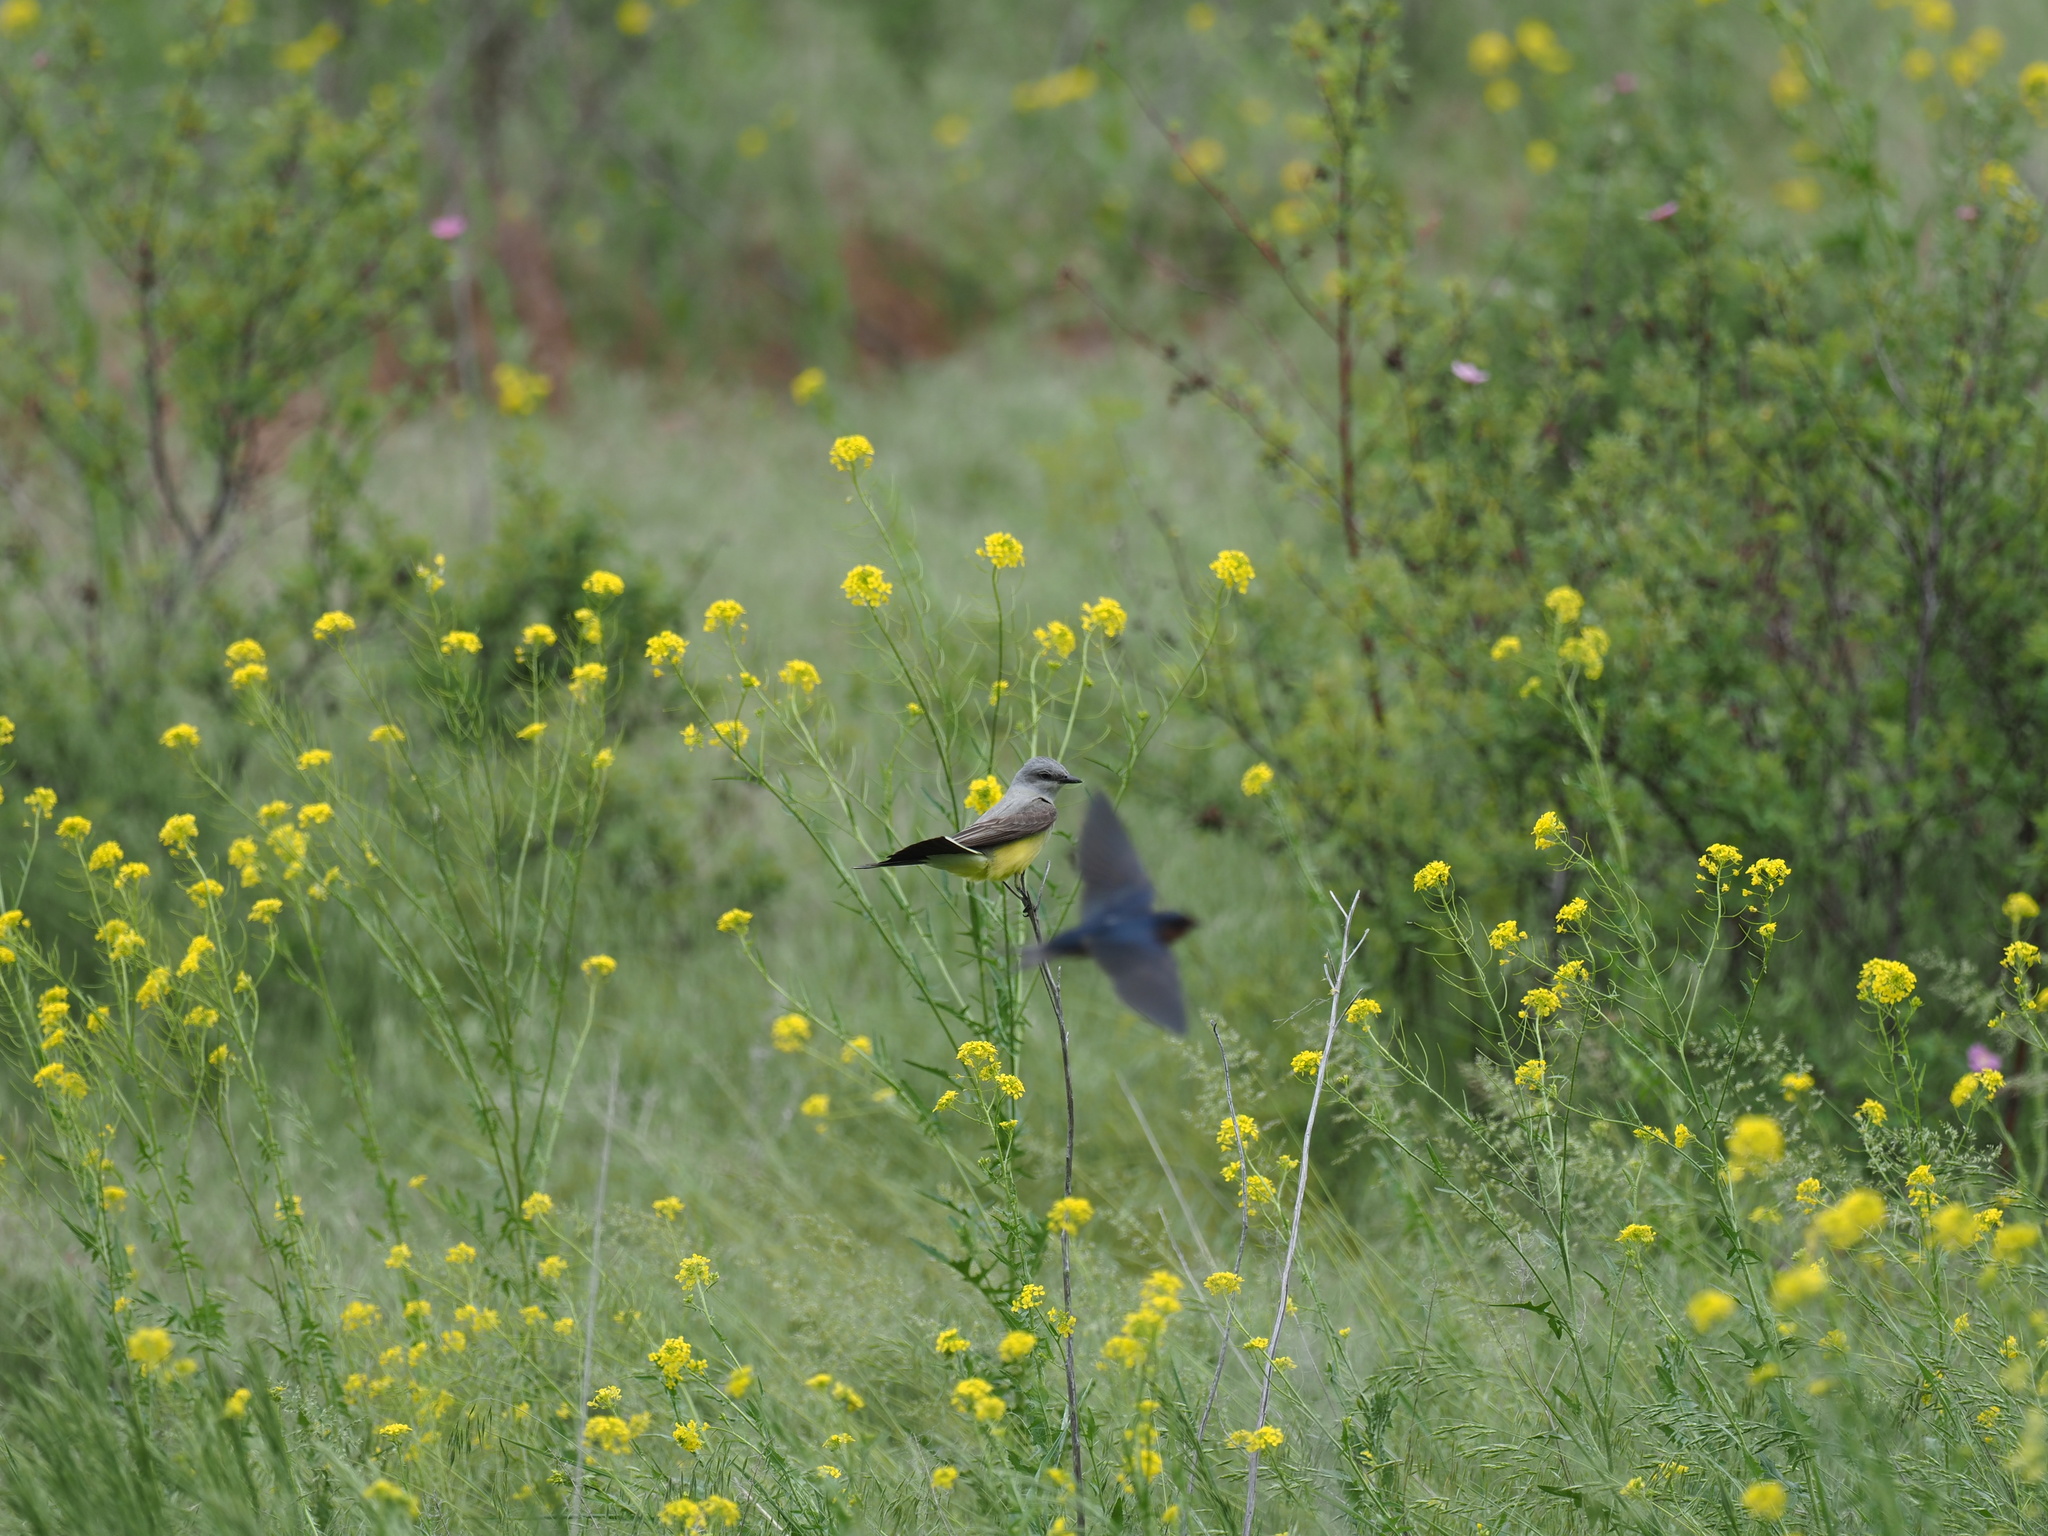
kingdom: Animalia
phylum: Chordata
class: Aves
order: Passeriformes
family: Hirundinidae
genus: Hirundo
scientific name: Hirundo rustica
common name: Barn swallow
